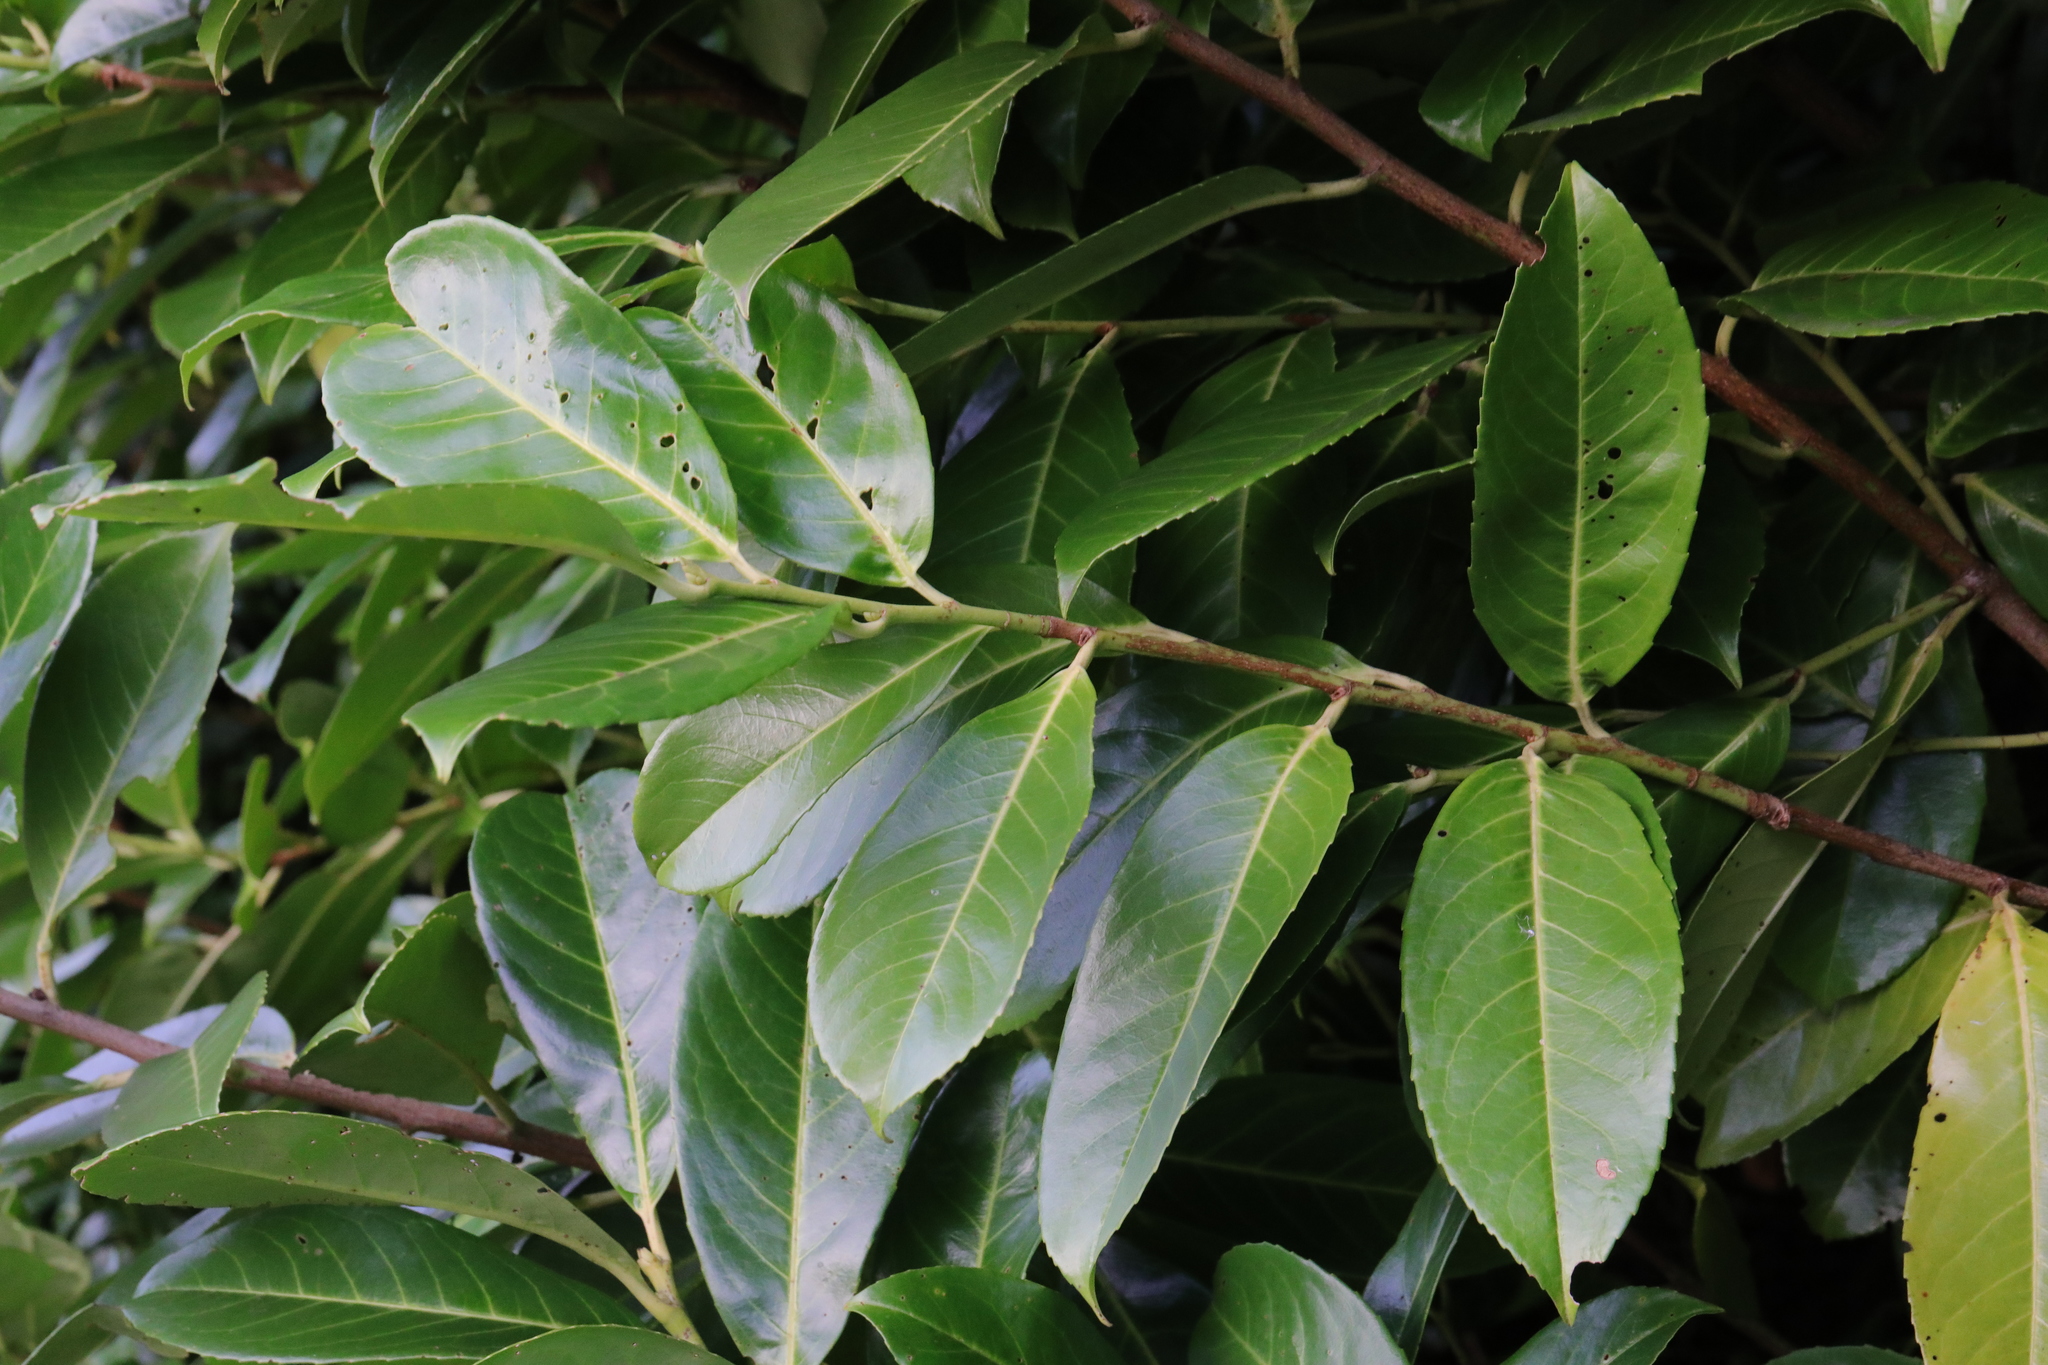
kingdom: Plantae
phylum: Tracheophyta
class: Magnoliopsida
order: Rosales
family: Rosaceae
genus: Prunus
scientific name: Prunus laurocerasus
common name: Cherry laurel
